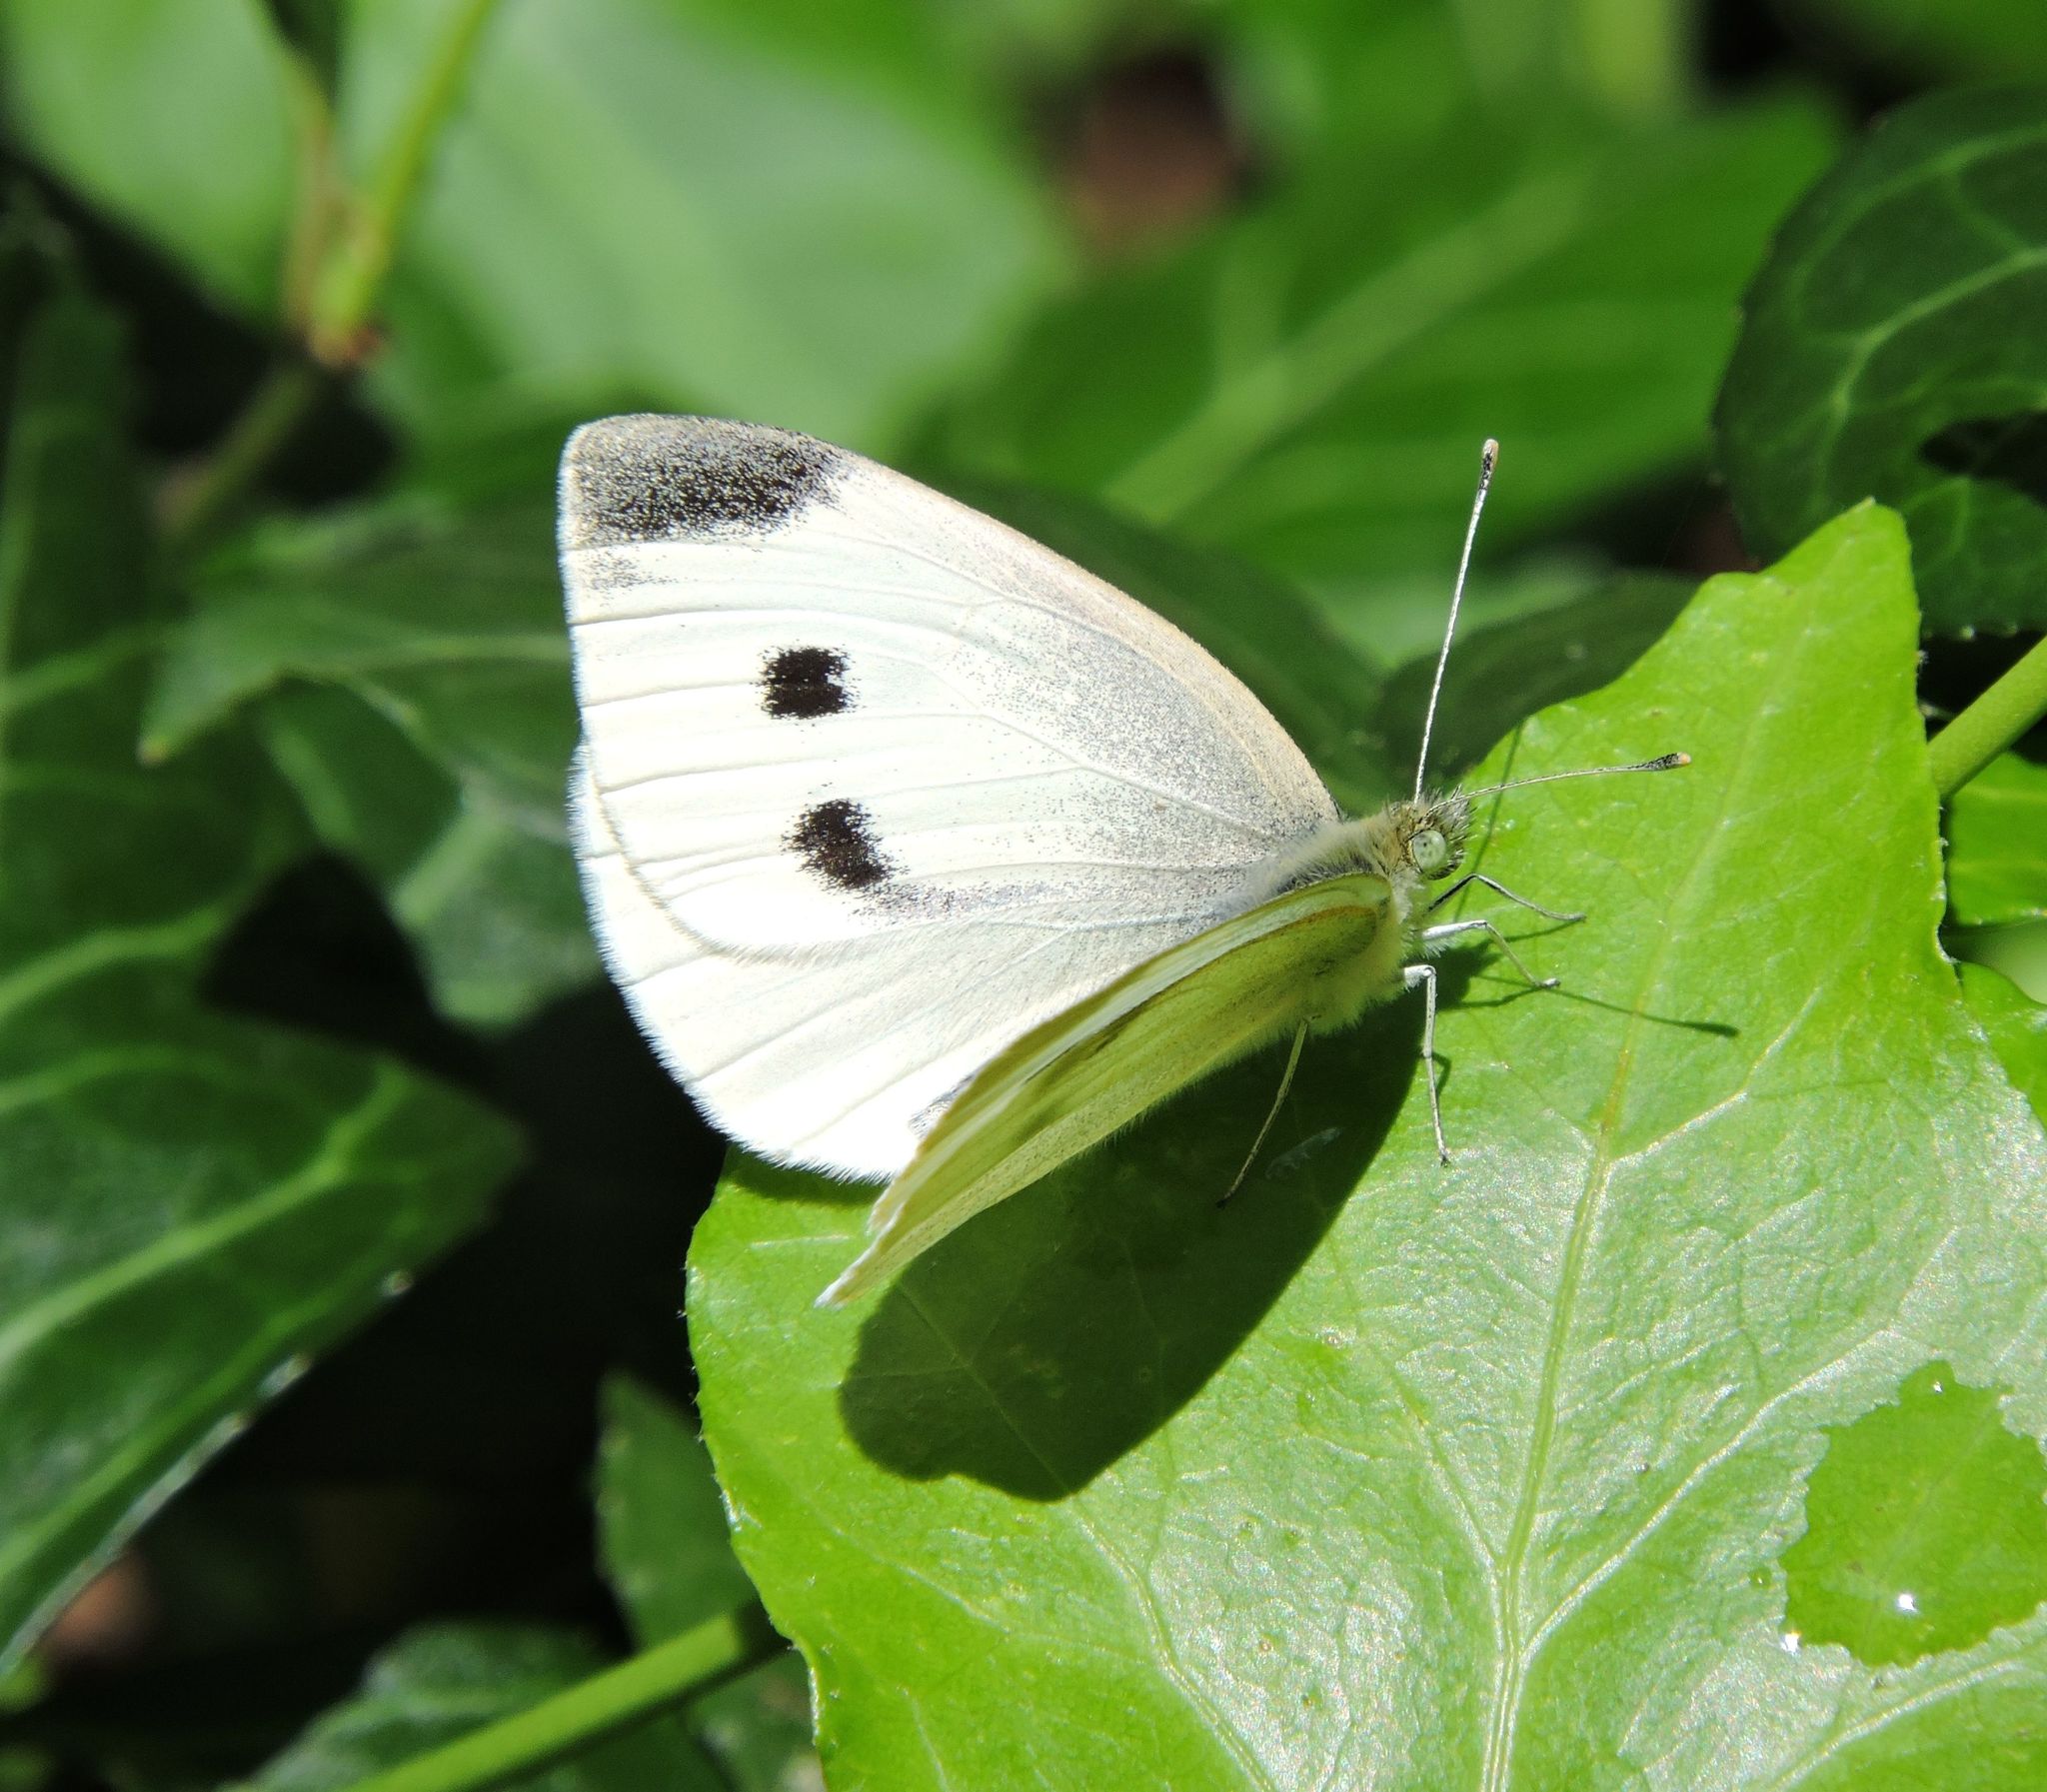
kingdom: Animalia
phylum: Arthropoda
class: Insecta
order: Lepidoptera
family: Pieridae
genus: Pieris
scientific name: Pieris rapae
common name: Small white
